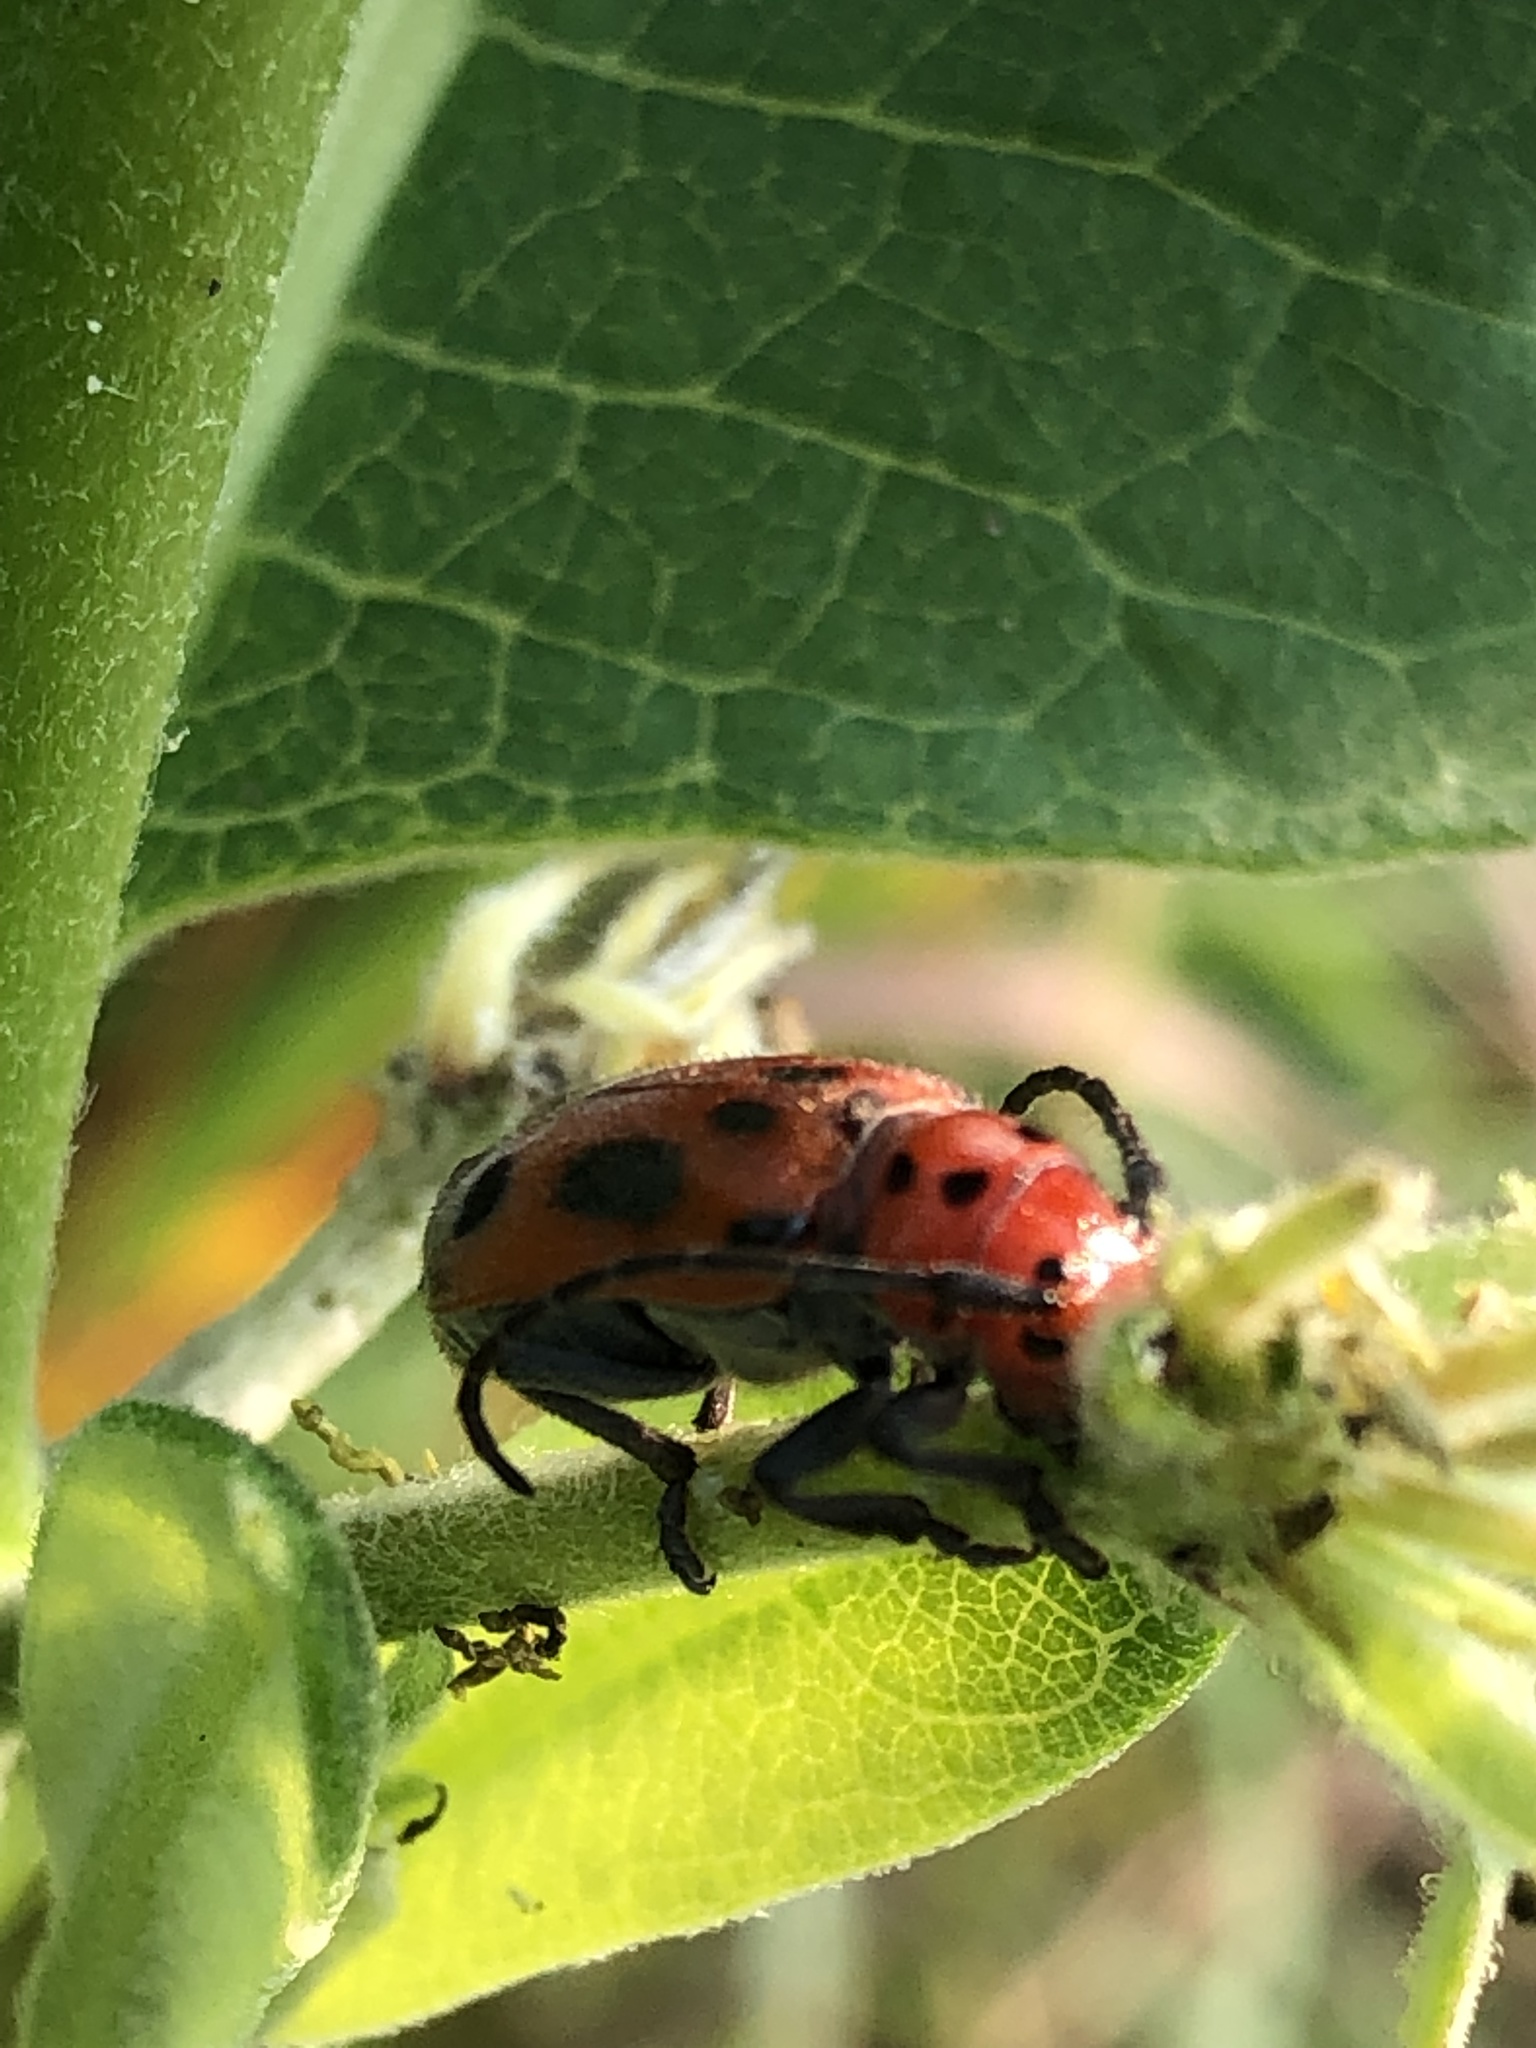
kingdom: Animalia
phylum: Arthropoda
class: Insecta
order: Coleoptera
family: Cerambycidae
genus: Tetraopes
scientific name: Tetraopes tetrophthalmus
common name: Red milkweed beetle
